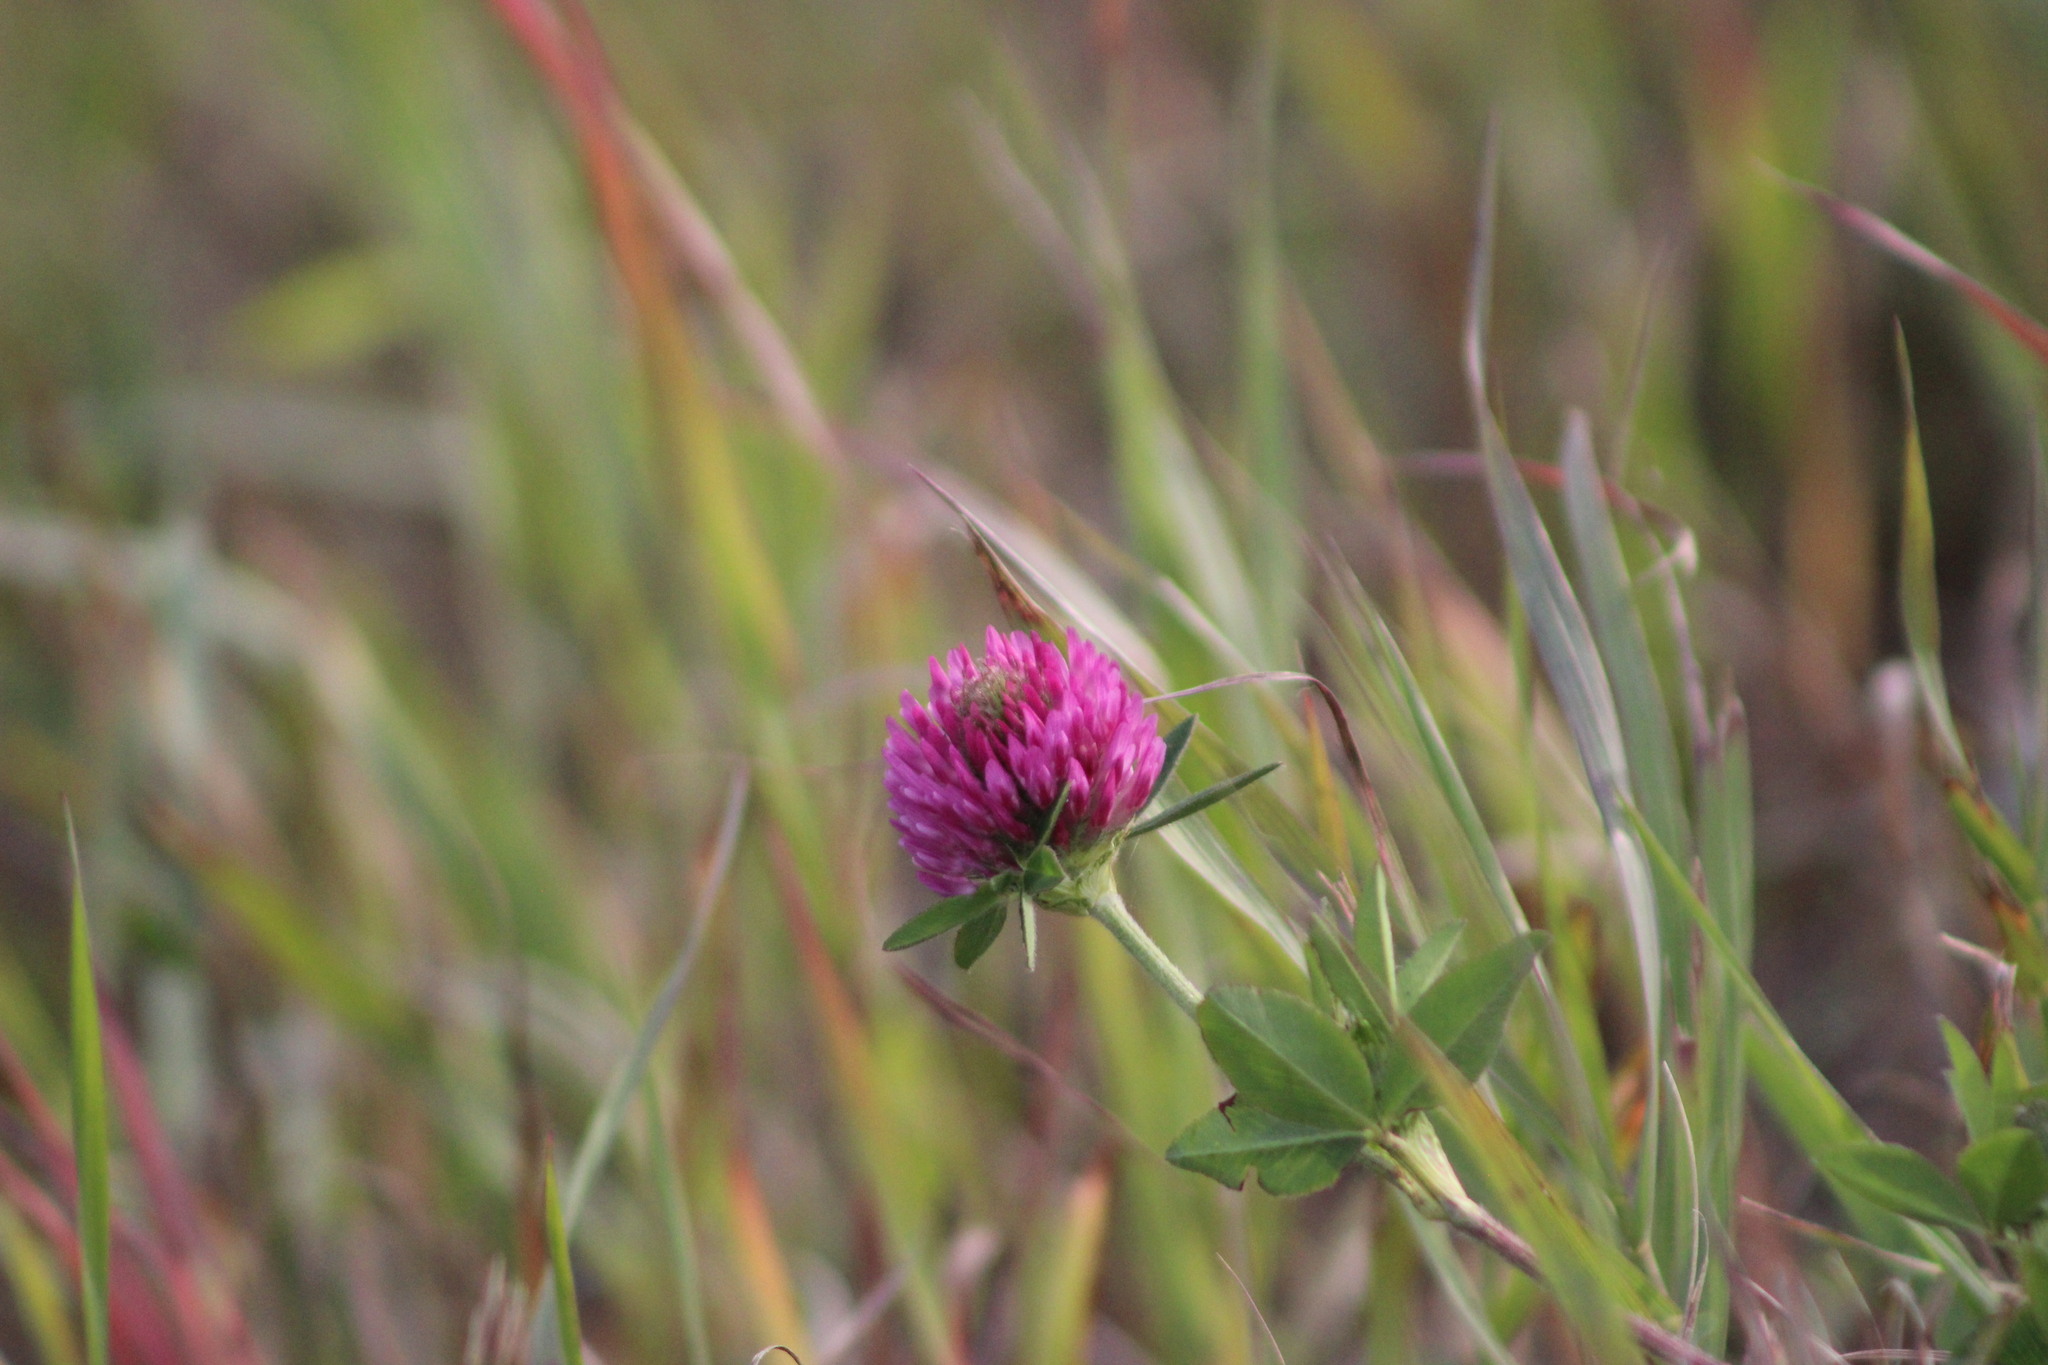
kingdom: Plantae
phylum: Tracheophyta
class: Magnoliopsida
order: Fabales
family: Fabaceae
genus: Trifolium
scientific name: Trifolium pratense
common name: Red clover
